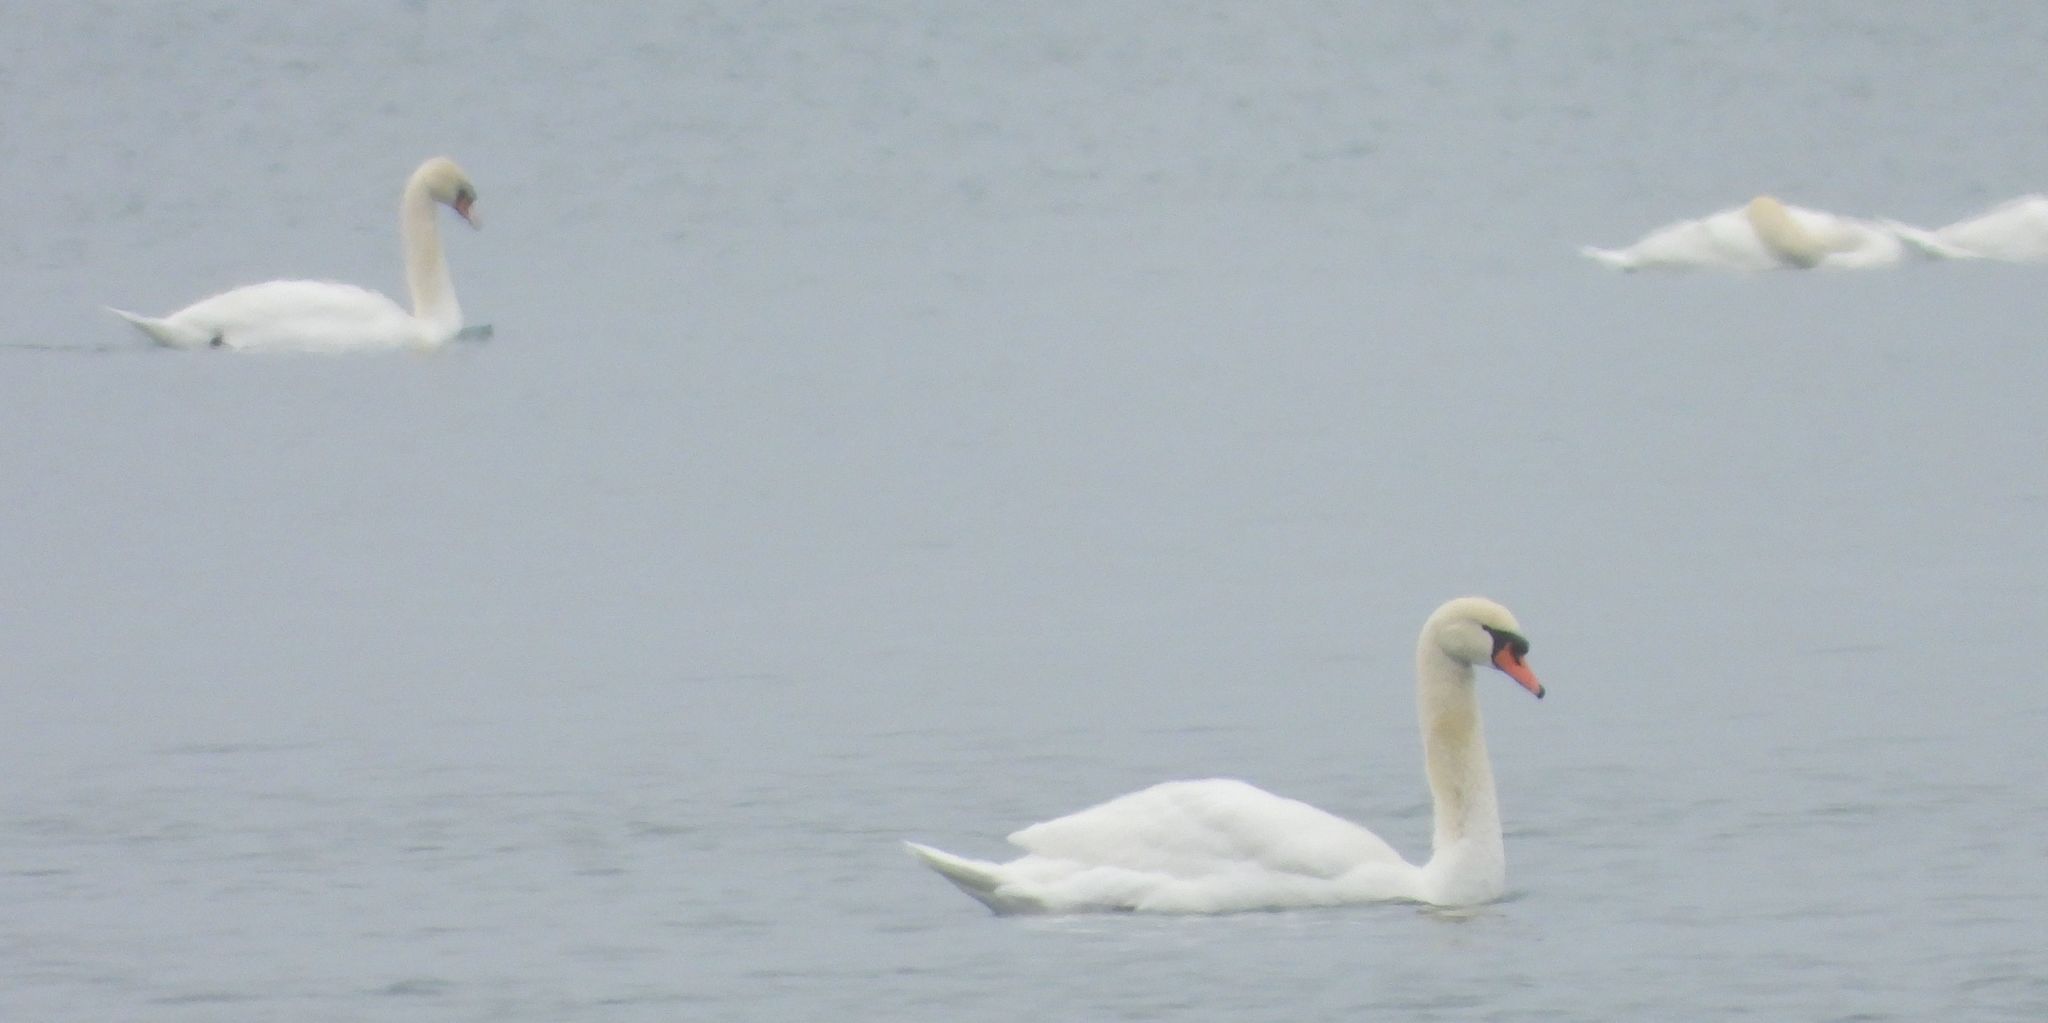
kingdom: Animalia
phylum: Chordata
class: Aves
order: Anseriformes
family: Anatidae
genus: Cygnus
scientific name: Cygnus olor
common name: Mute swan
